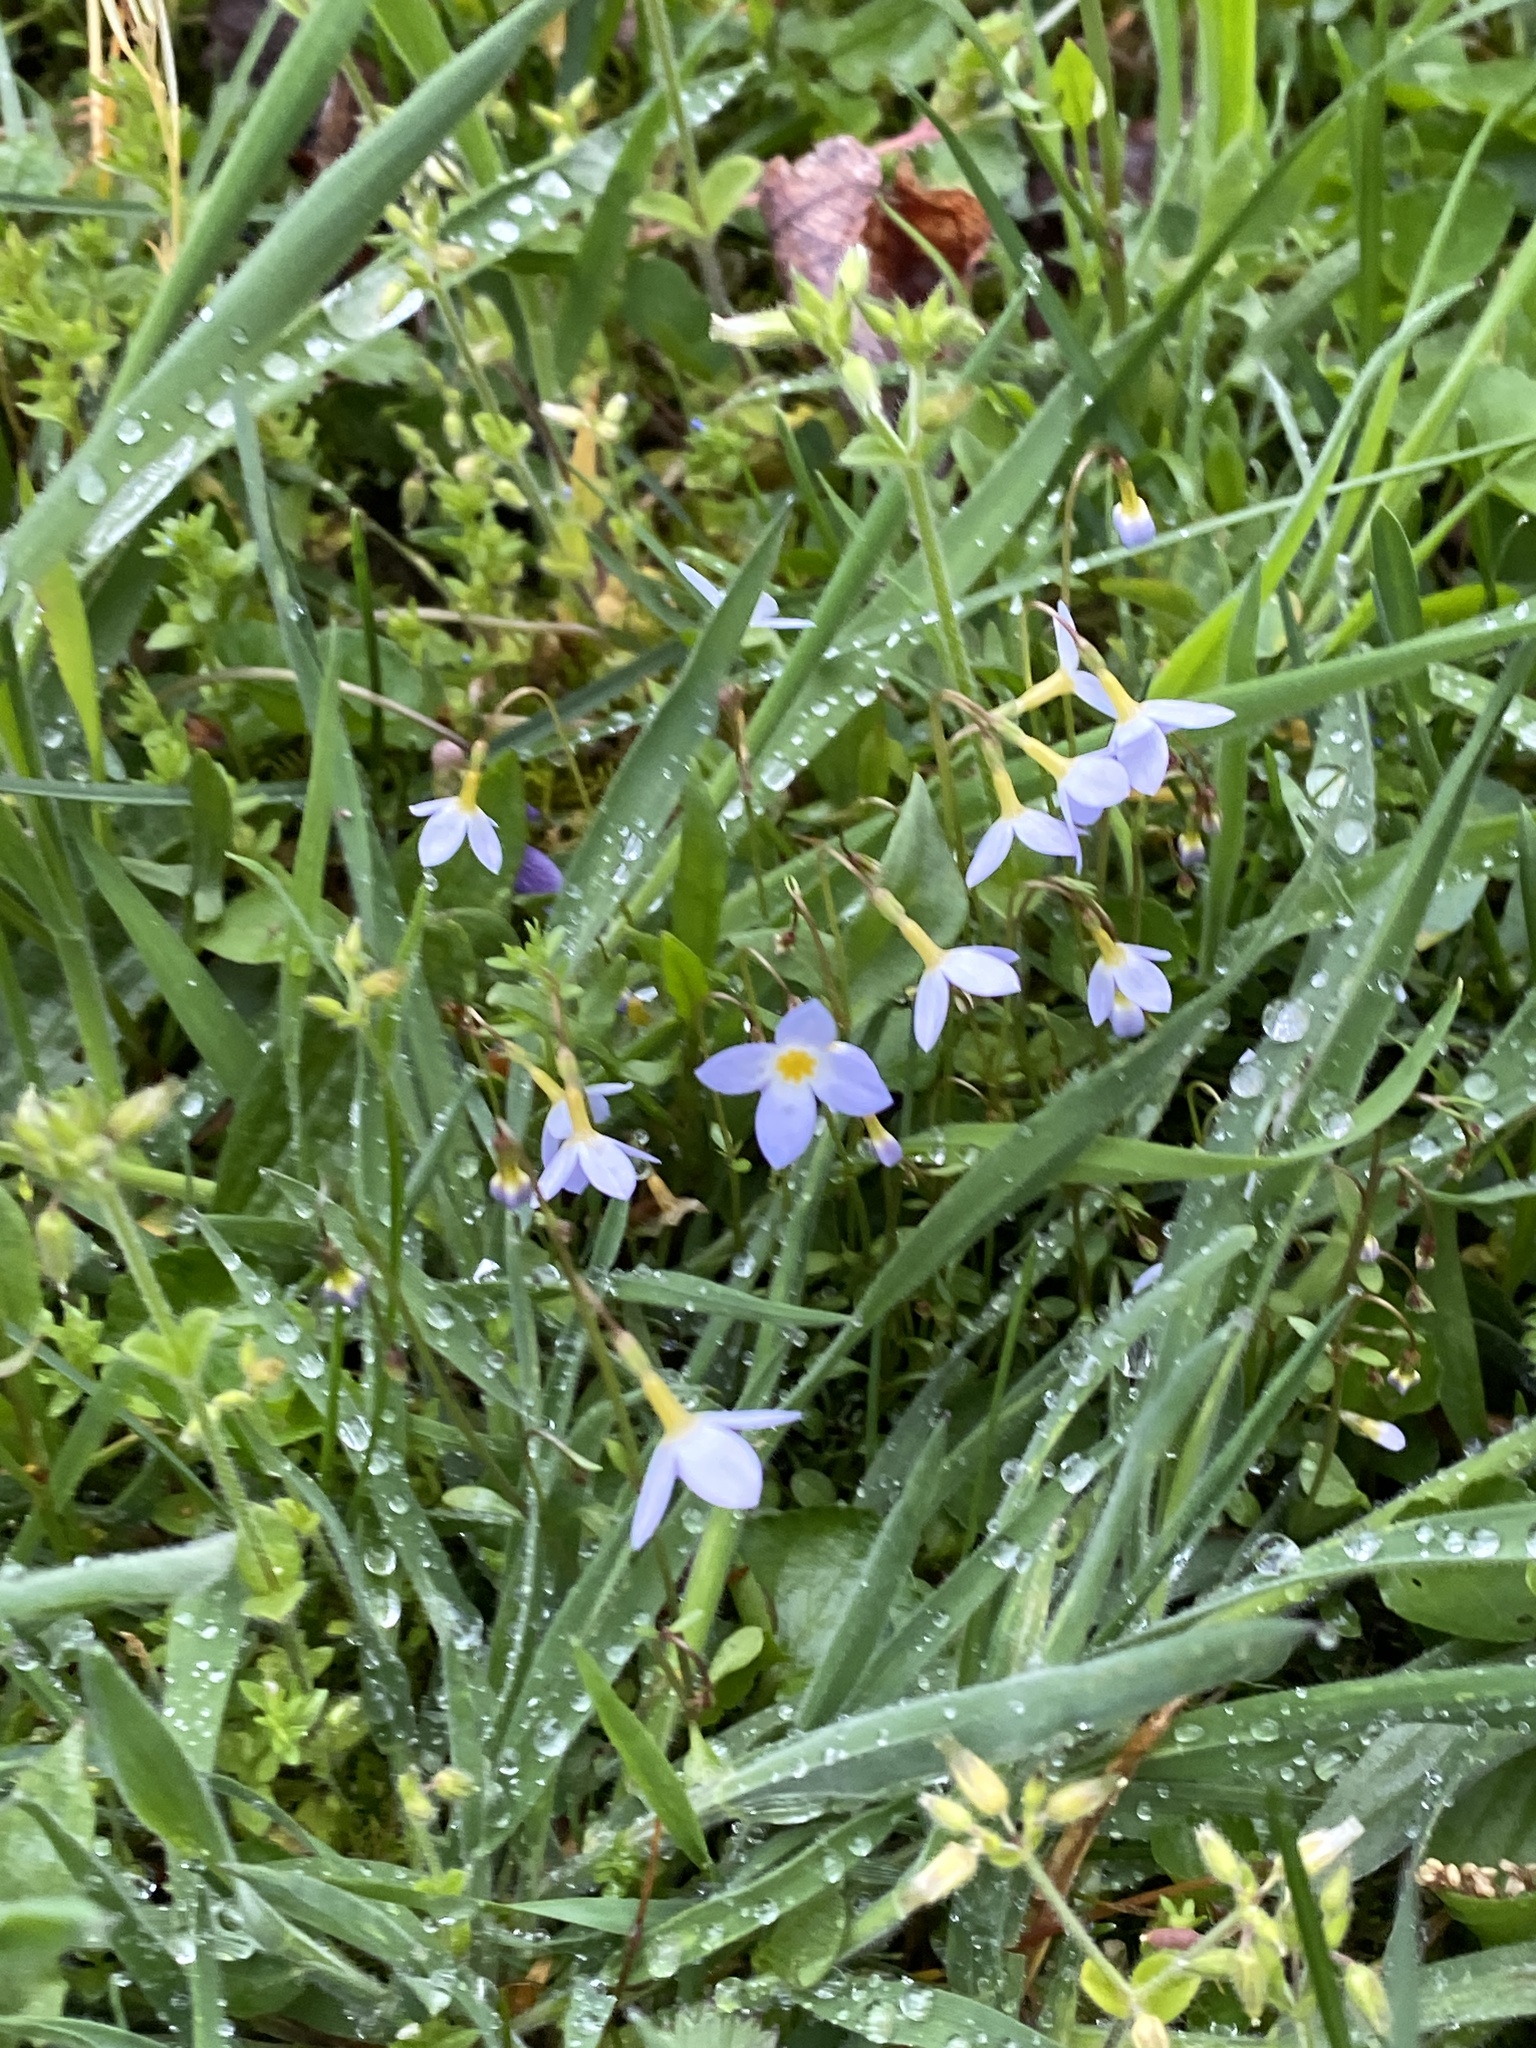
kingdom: Plantae
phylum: Tracheophyta
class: Magnoliopsida
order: Gentianales
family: Rubiaceae
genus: Houstonia
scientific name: Houstonia caerulea
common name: Bluets
